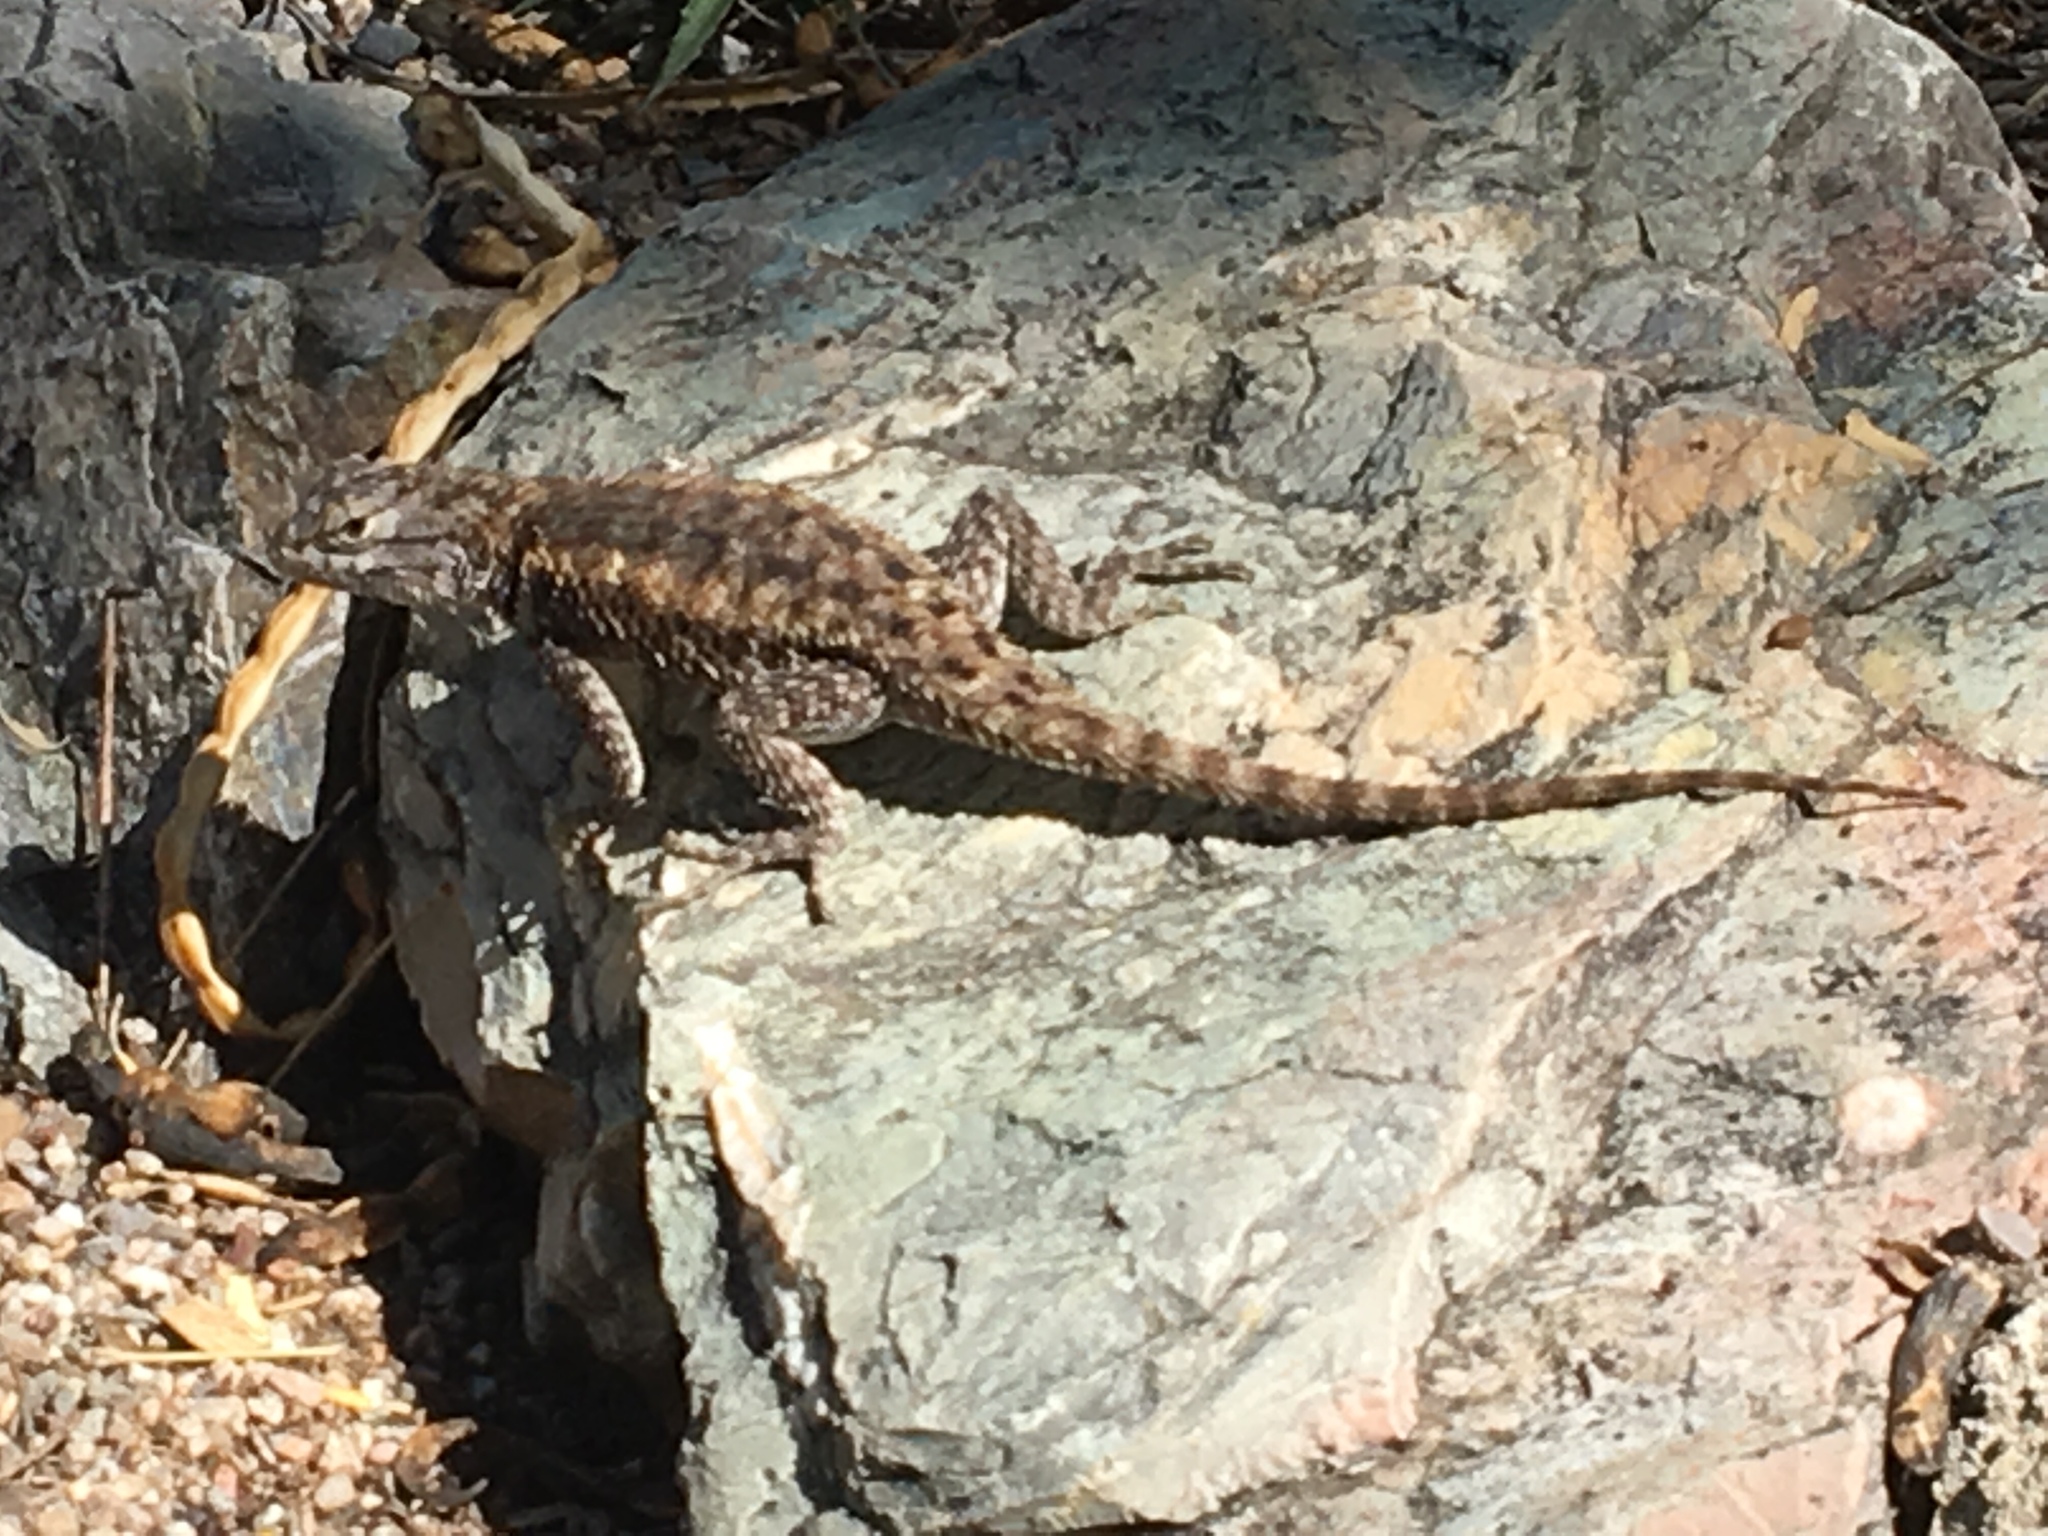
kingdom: Animalia
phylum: Chordata
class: Squamata
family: Phrynosomatidae
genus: Sceloporus
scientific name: Sceloporus magister
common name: Desert spiny lizard
